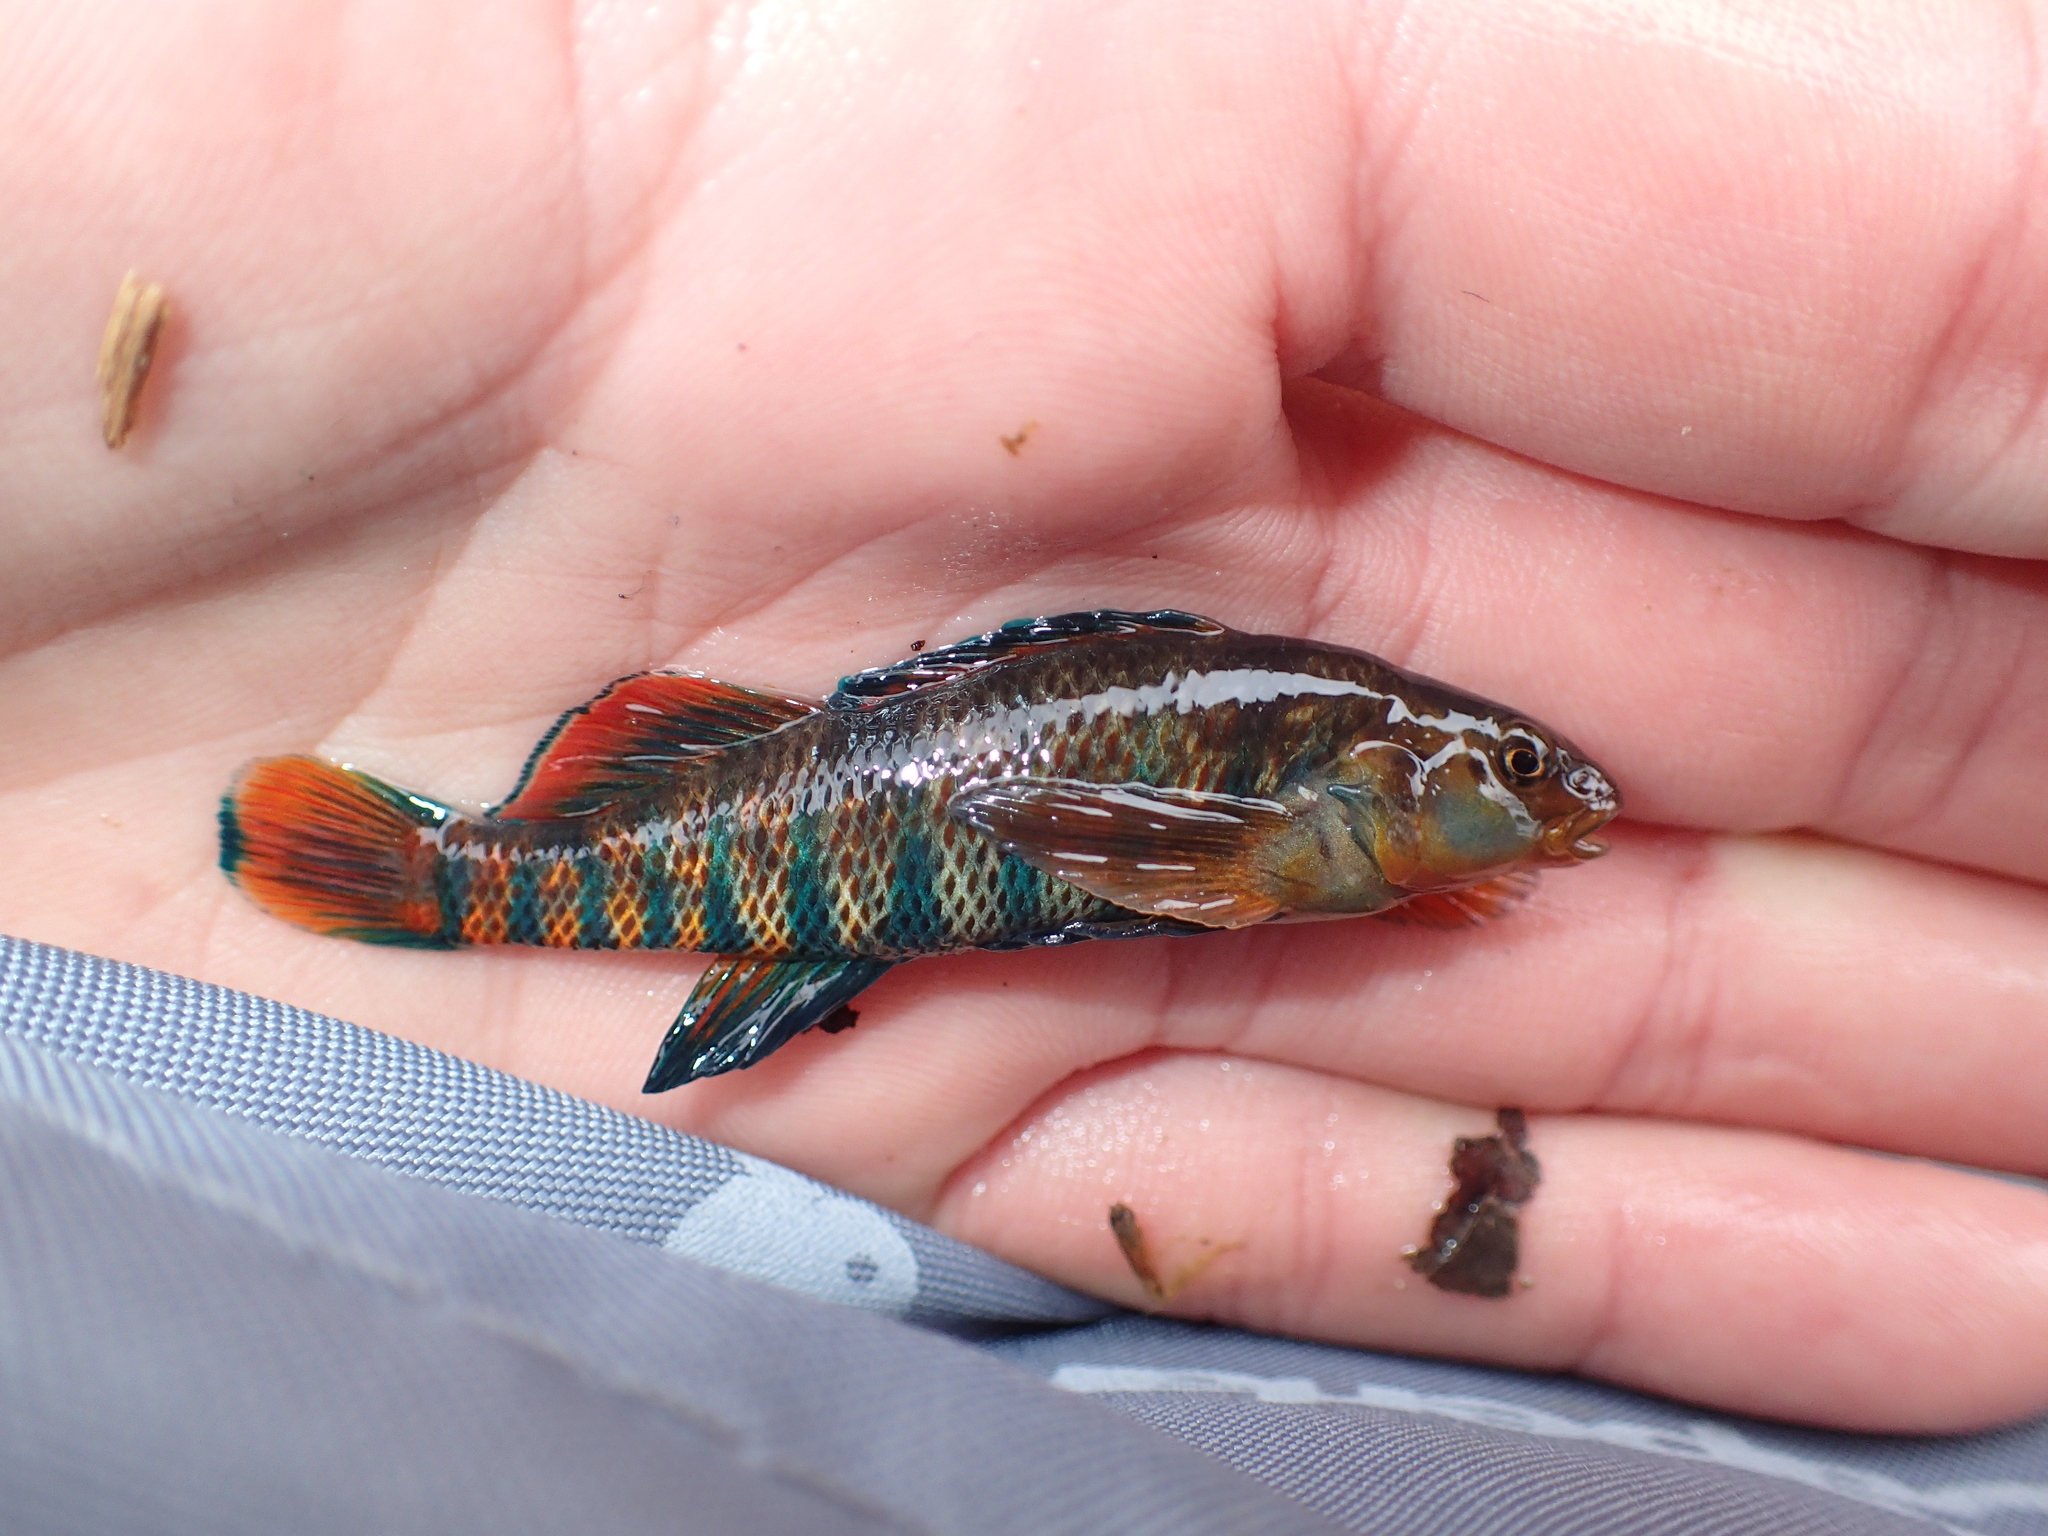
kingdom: Animalia
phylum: Chordata
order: Perciformes
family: Percidae
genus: Etheostoma
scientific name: Etheostoma caeruleum
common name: Rainbow darter
